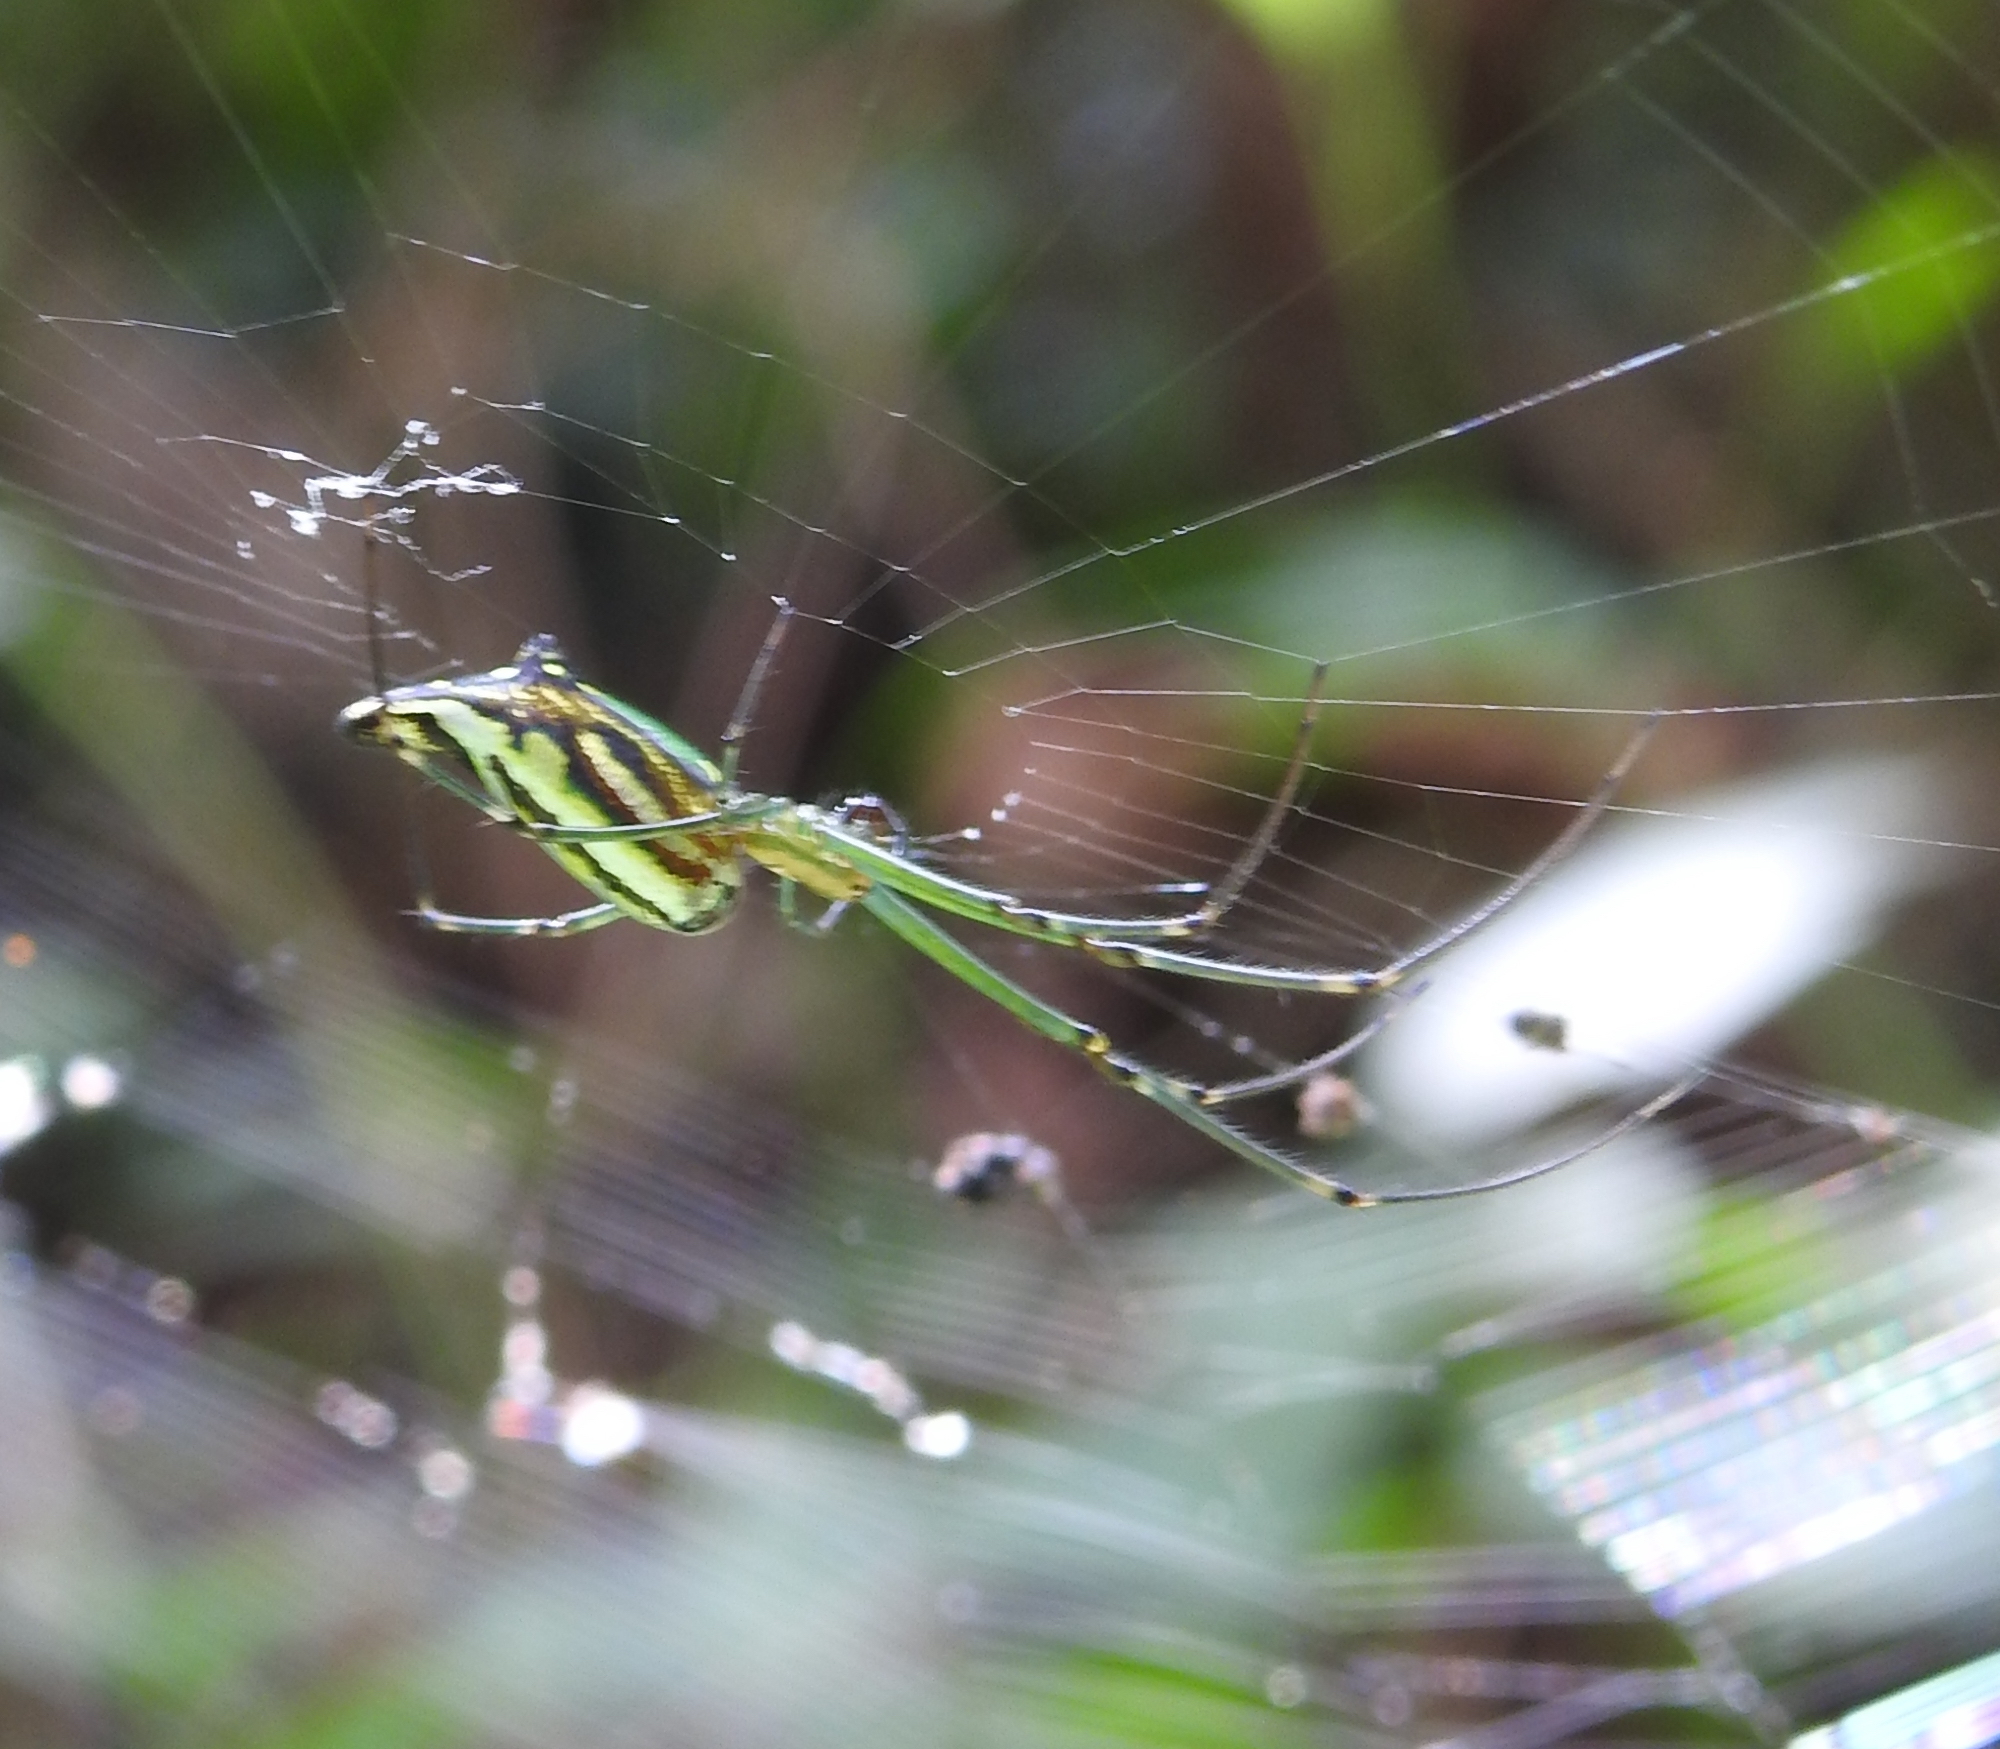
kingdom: Animalia
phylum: Arthropoda
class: Arachnida
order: Araneae
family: Tetragnathidae
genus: Leucauge
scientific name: Leucauge decorata
